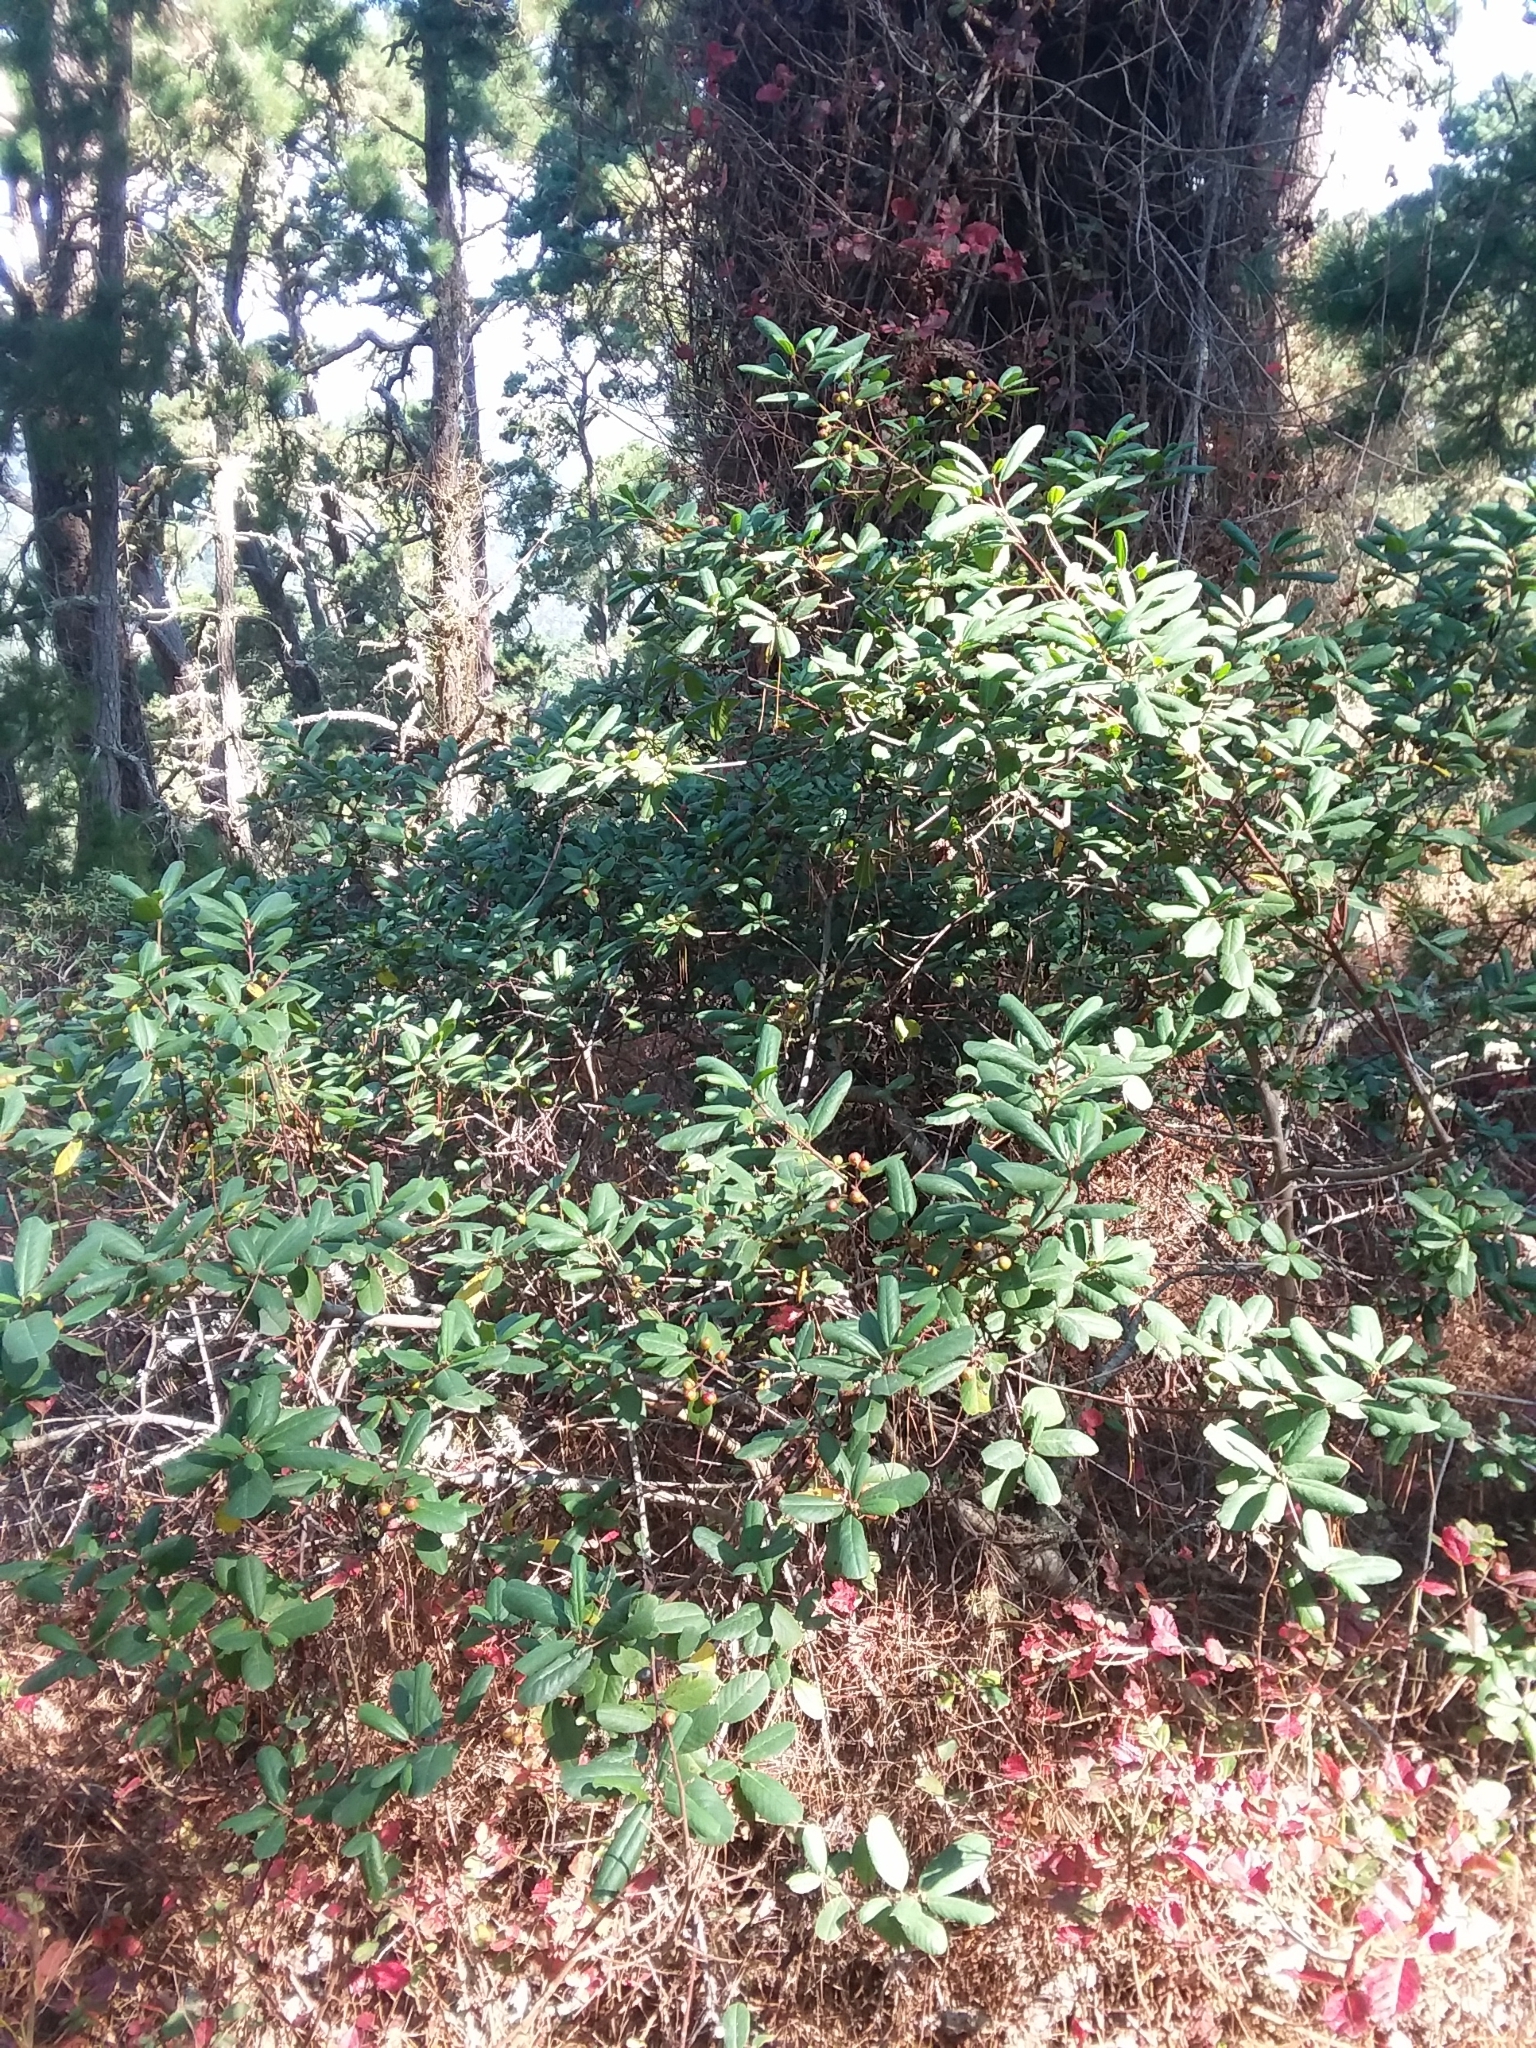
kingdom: Plantae
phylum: Tracheophyta
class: Magnoliopsida
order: Rosales
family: Rhamnaceae
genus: Frangula
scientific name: Frangula californica
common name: California buckthorn
